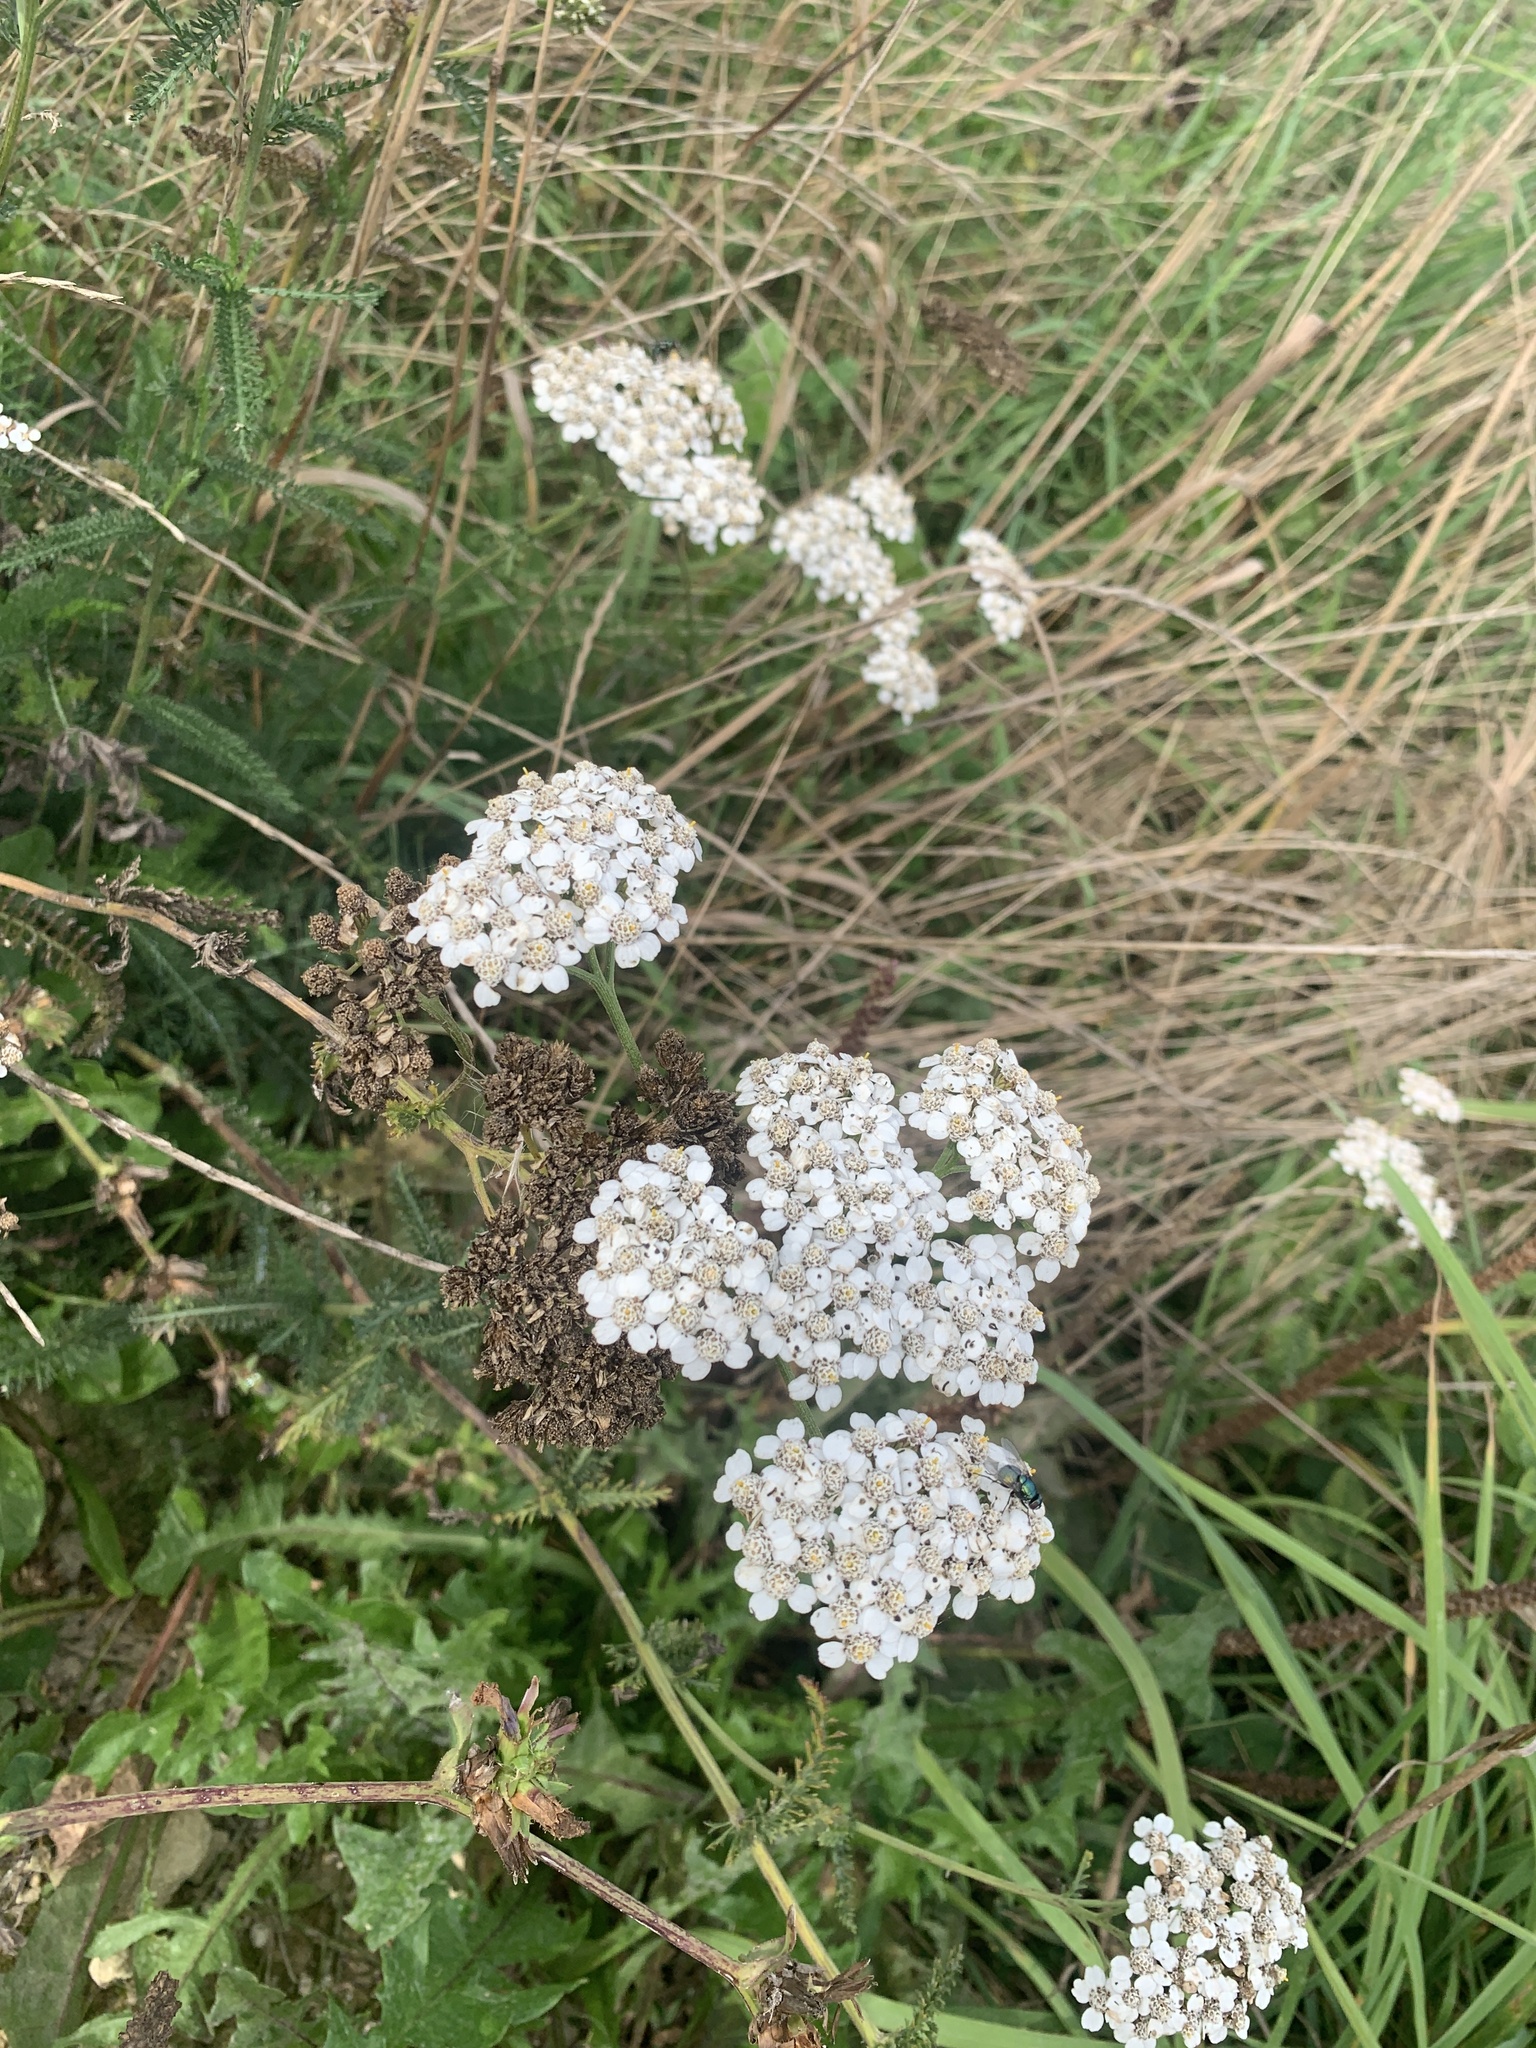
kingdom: Plantae
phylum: Tracheophyta
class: Magnoliopsida
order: Asterales
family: Asteraceae
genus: Achillea
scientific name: Achillea millefolium
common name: Yarrow
